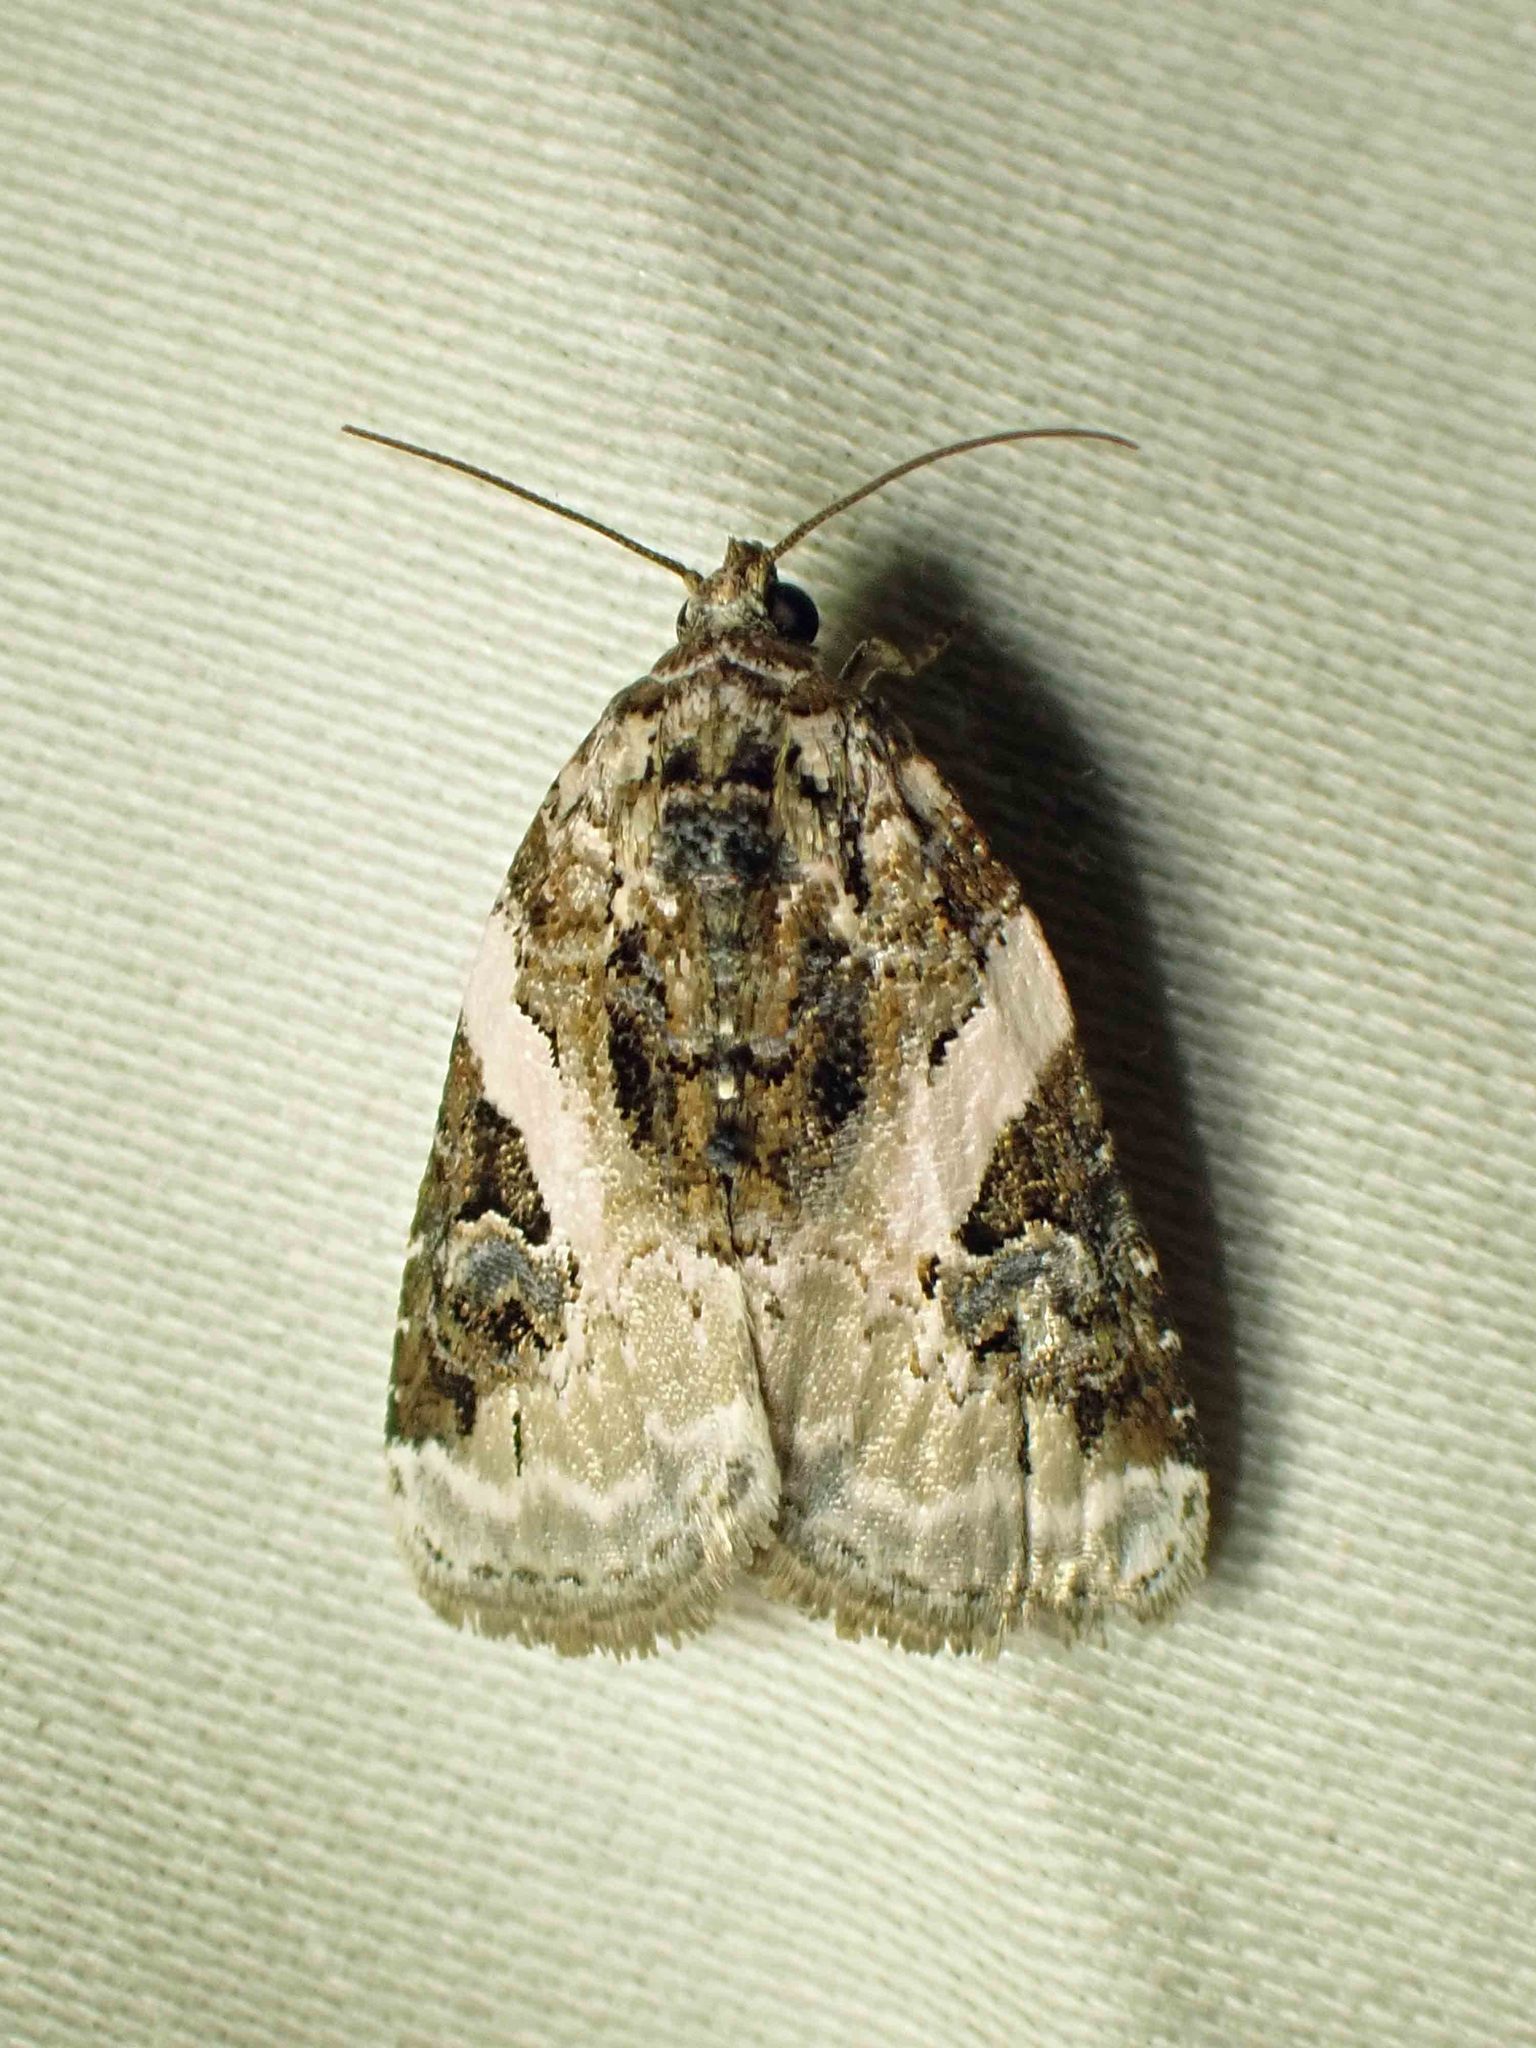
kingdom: Animalia
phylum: Arthropoda
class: Insecta
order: Lepidoptera
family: Noctuidae
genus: Pseudeustrotia
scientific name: Pseudeustrotia carneola
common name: Pink-barred lithacodia moth
